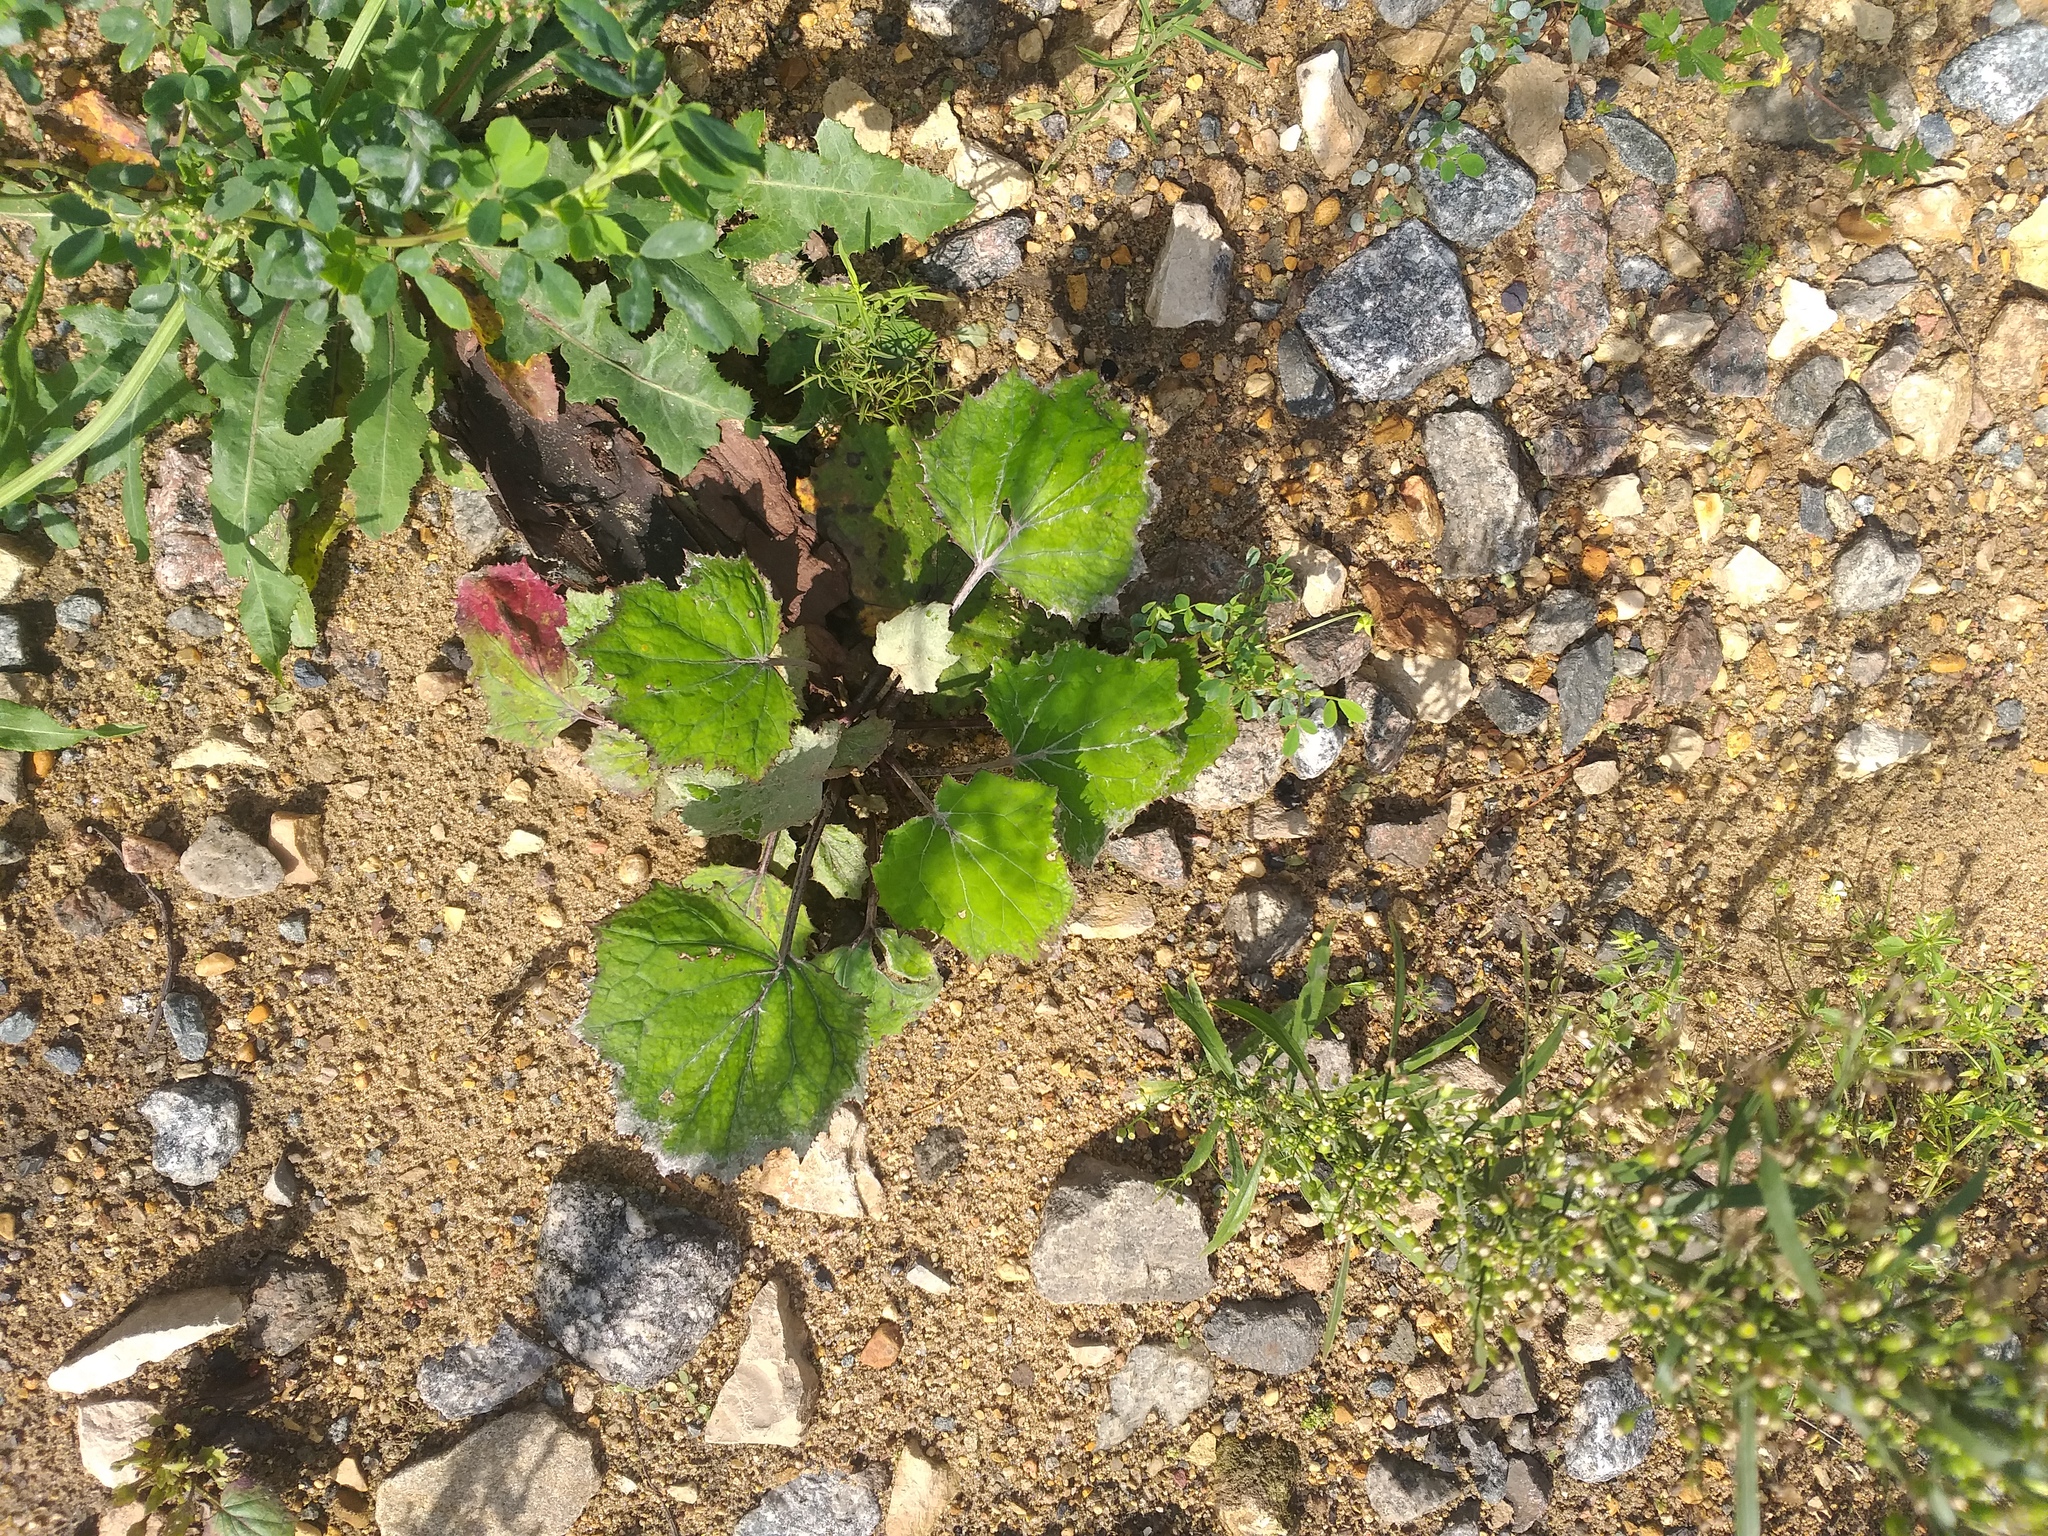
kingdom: Plantae
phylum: Tracheophyta
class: Magnoliopsida
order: Asterales
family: Asteraceae
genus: Tussilago
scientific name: Tussilago farfara
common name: Coltsfoot
